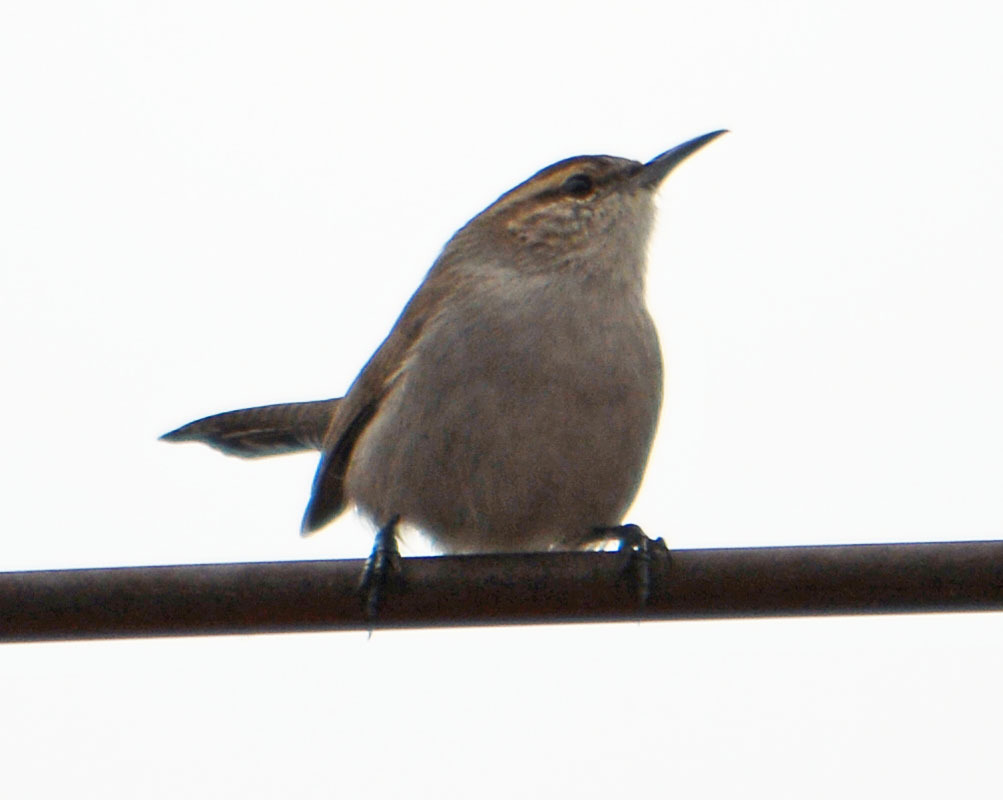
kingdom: Animalia
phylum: Chordata
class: Aves
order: Passeriformes
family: Troglodytidae
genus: Thryomanes
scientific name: Thryomanes bewickii
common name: Bewick's wren
